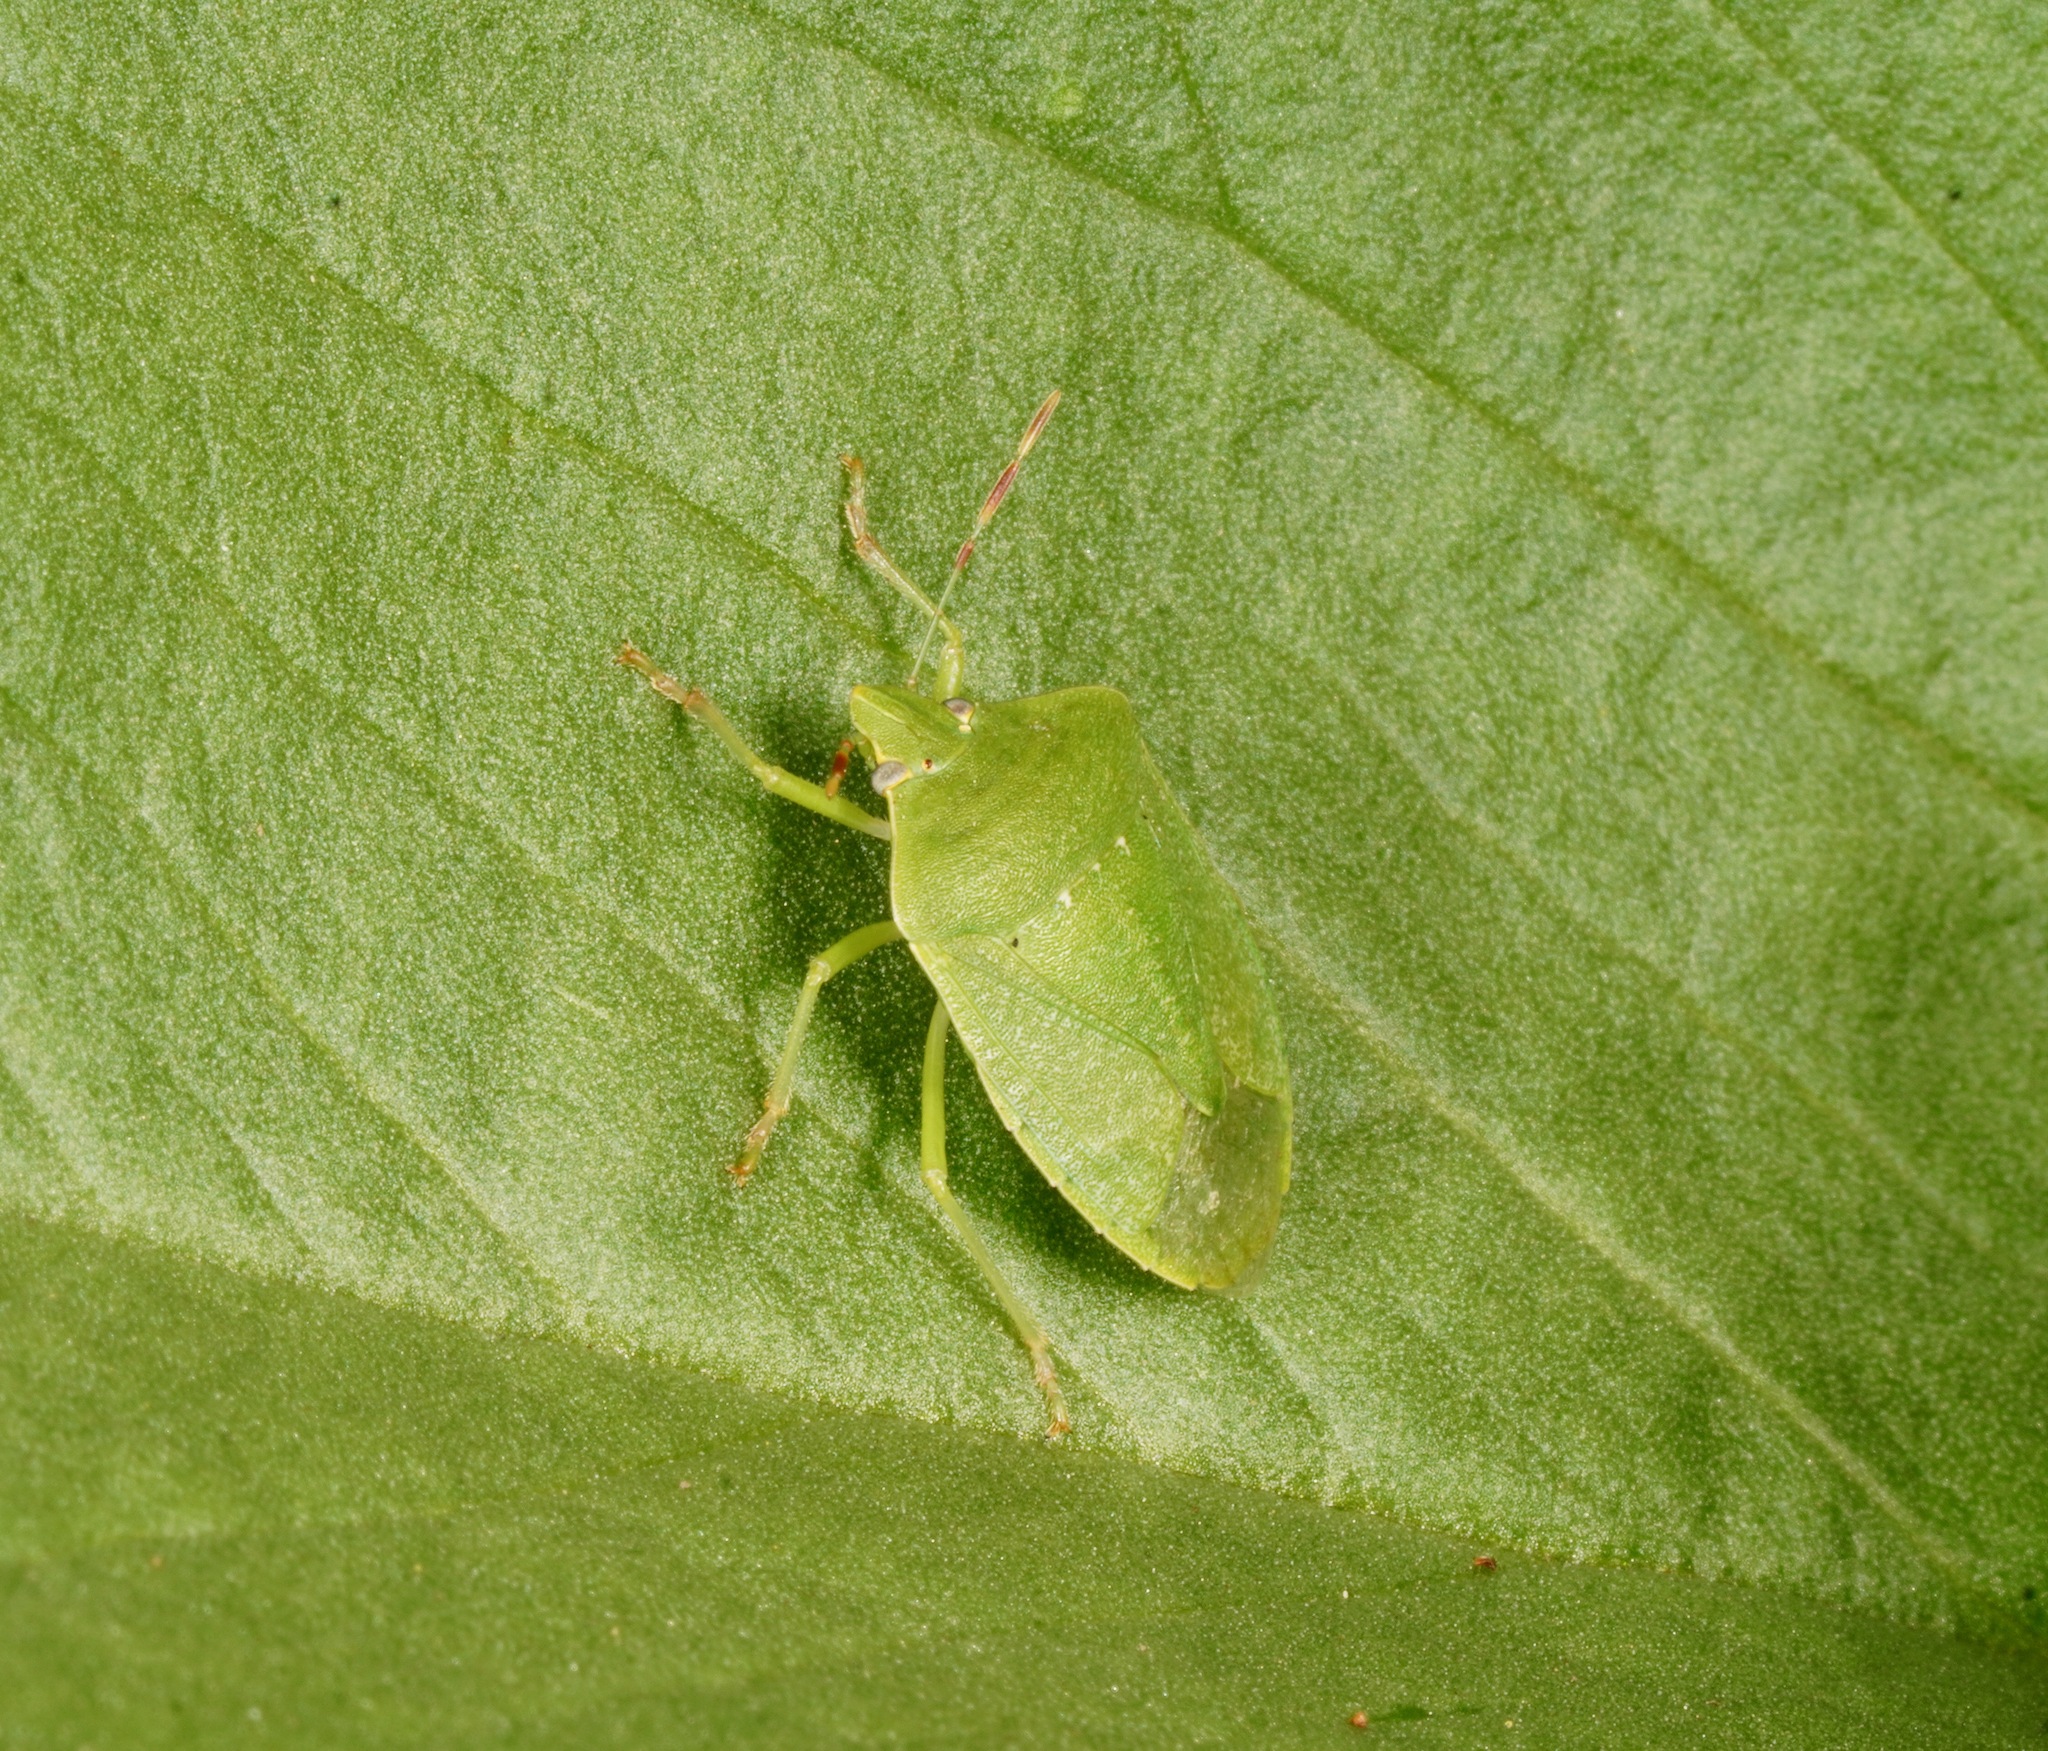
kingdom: Animalia
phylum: Arthropoda
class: Insecta
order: Hemiptera
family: Pentatomidae
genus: Nezara
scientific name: Nezara viridula
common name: Southern green stink bug
